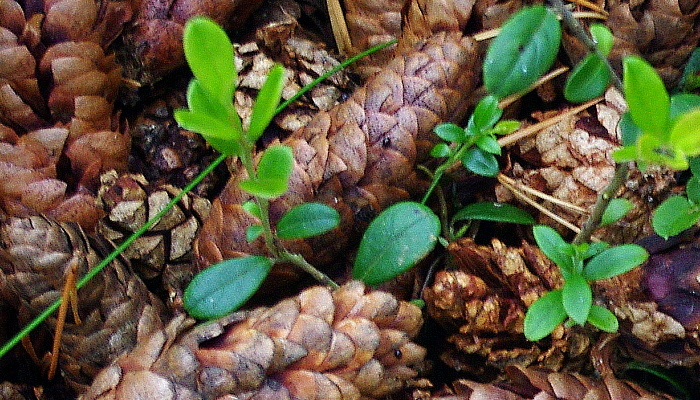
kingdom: Plantae
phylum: Tracheophyta
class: Magnoliopsida
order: Ericales
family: Ericaceae
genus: Vaccinium
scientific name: Vaccinium vitis-idaea
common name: Cowberry
